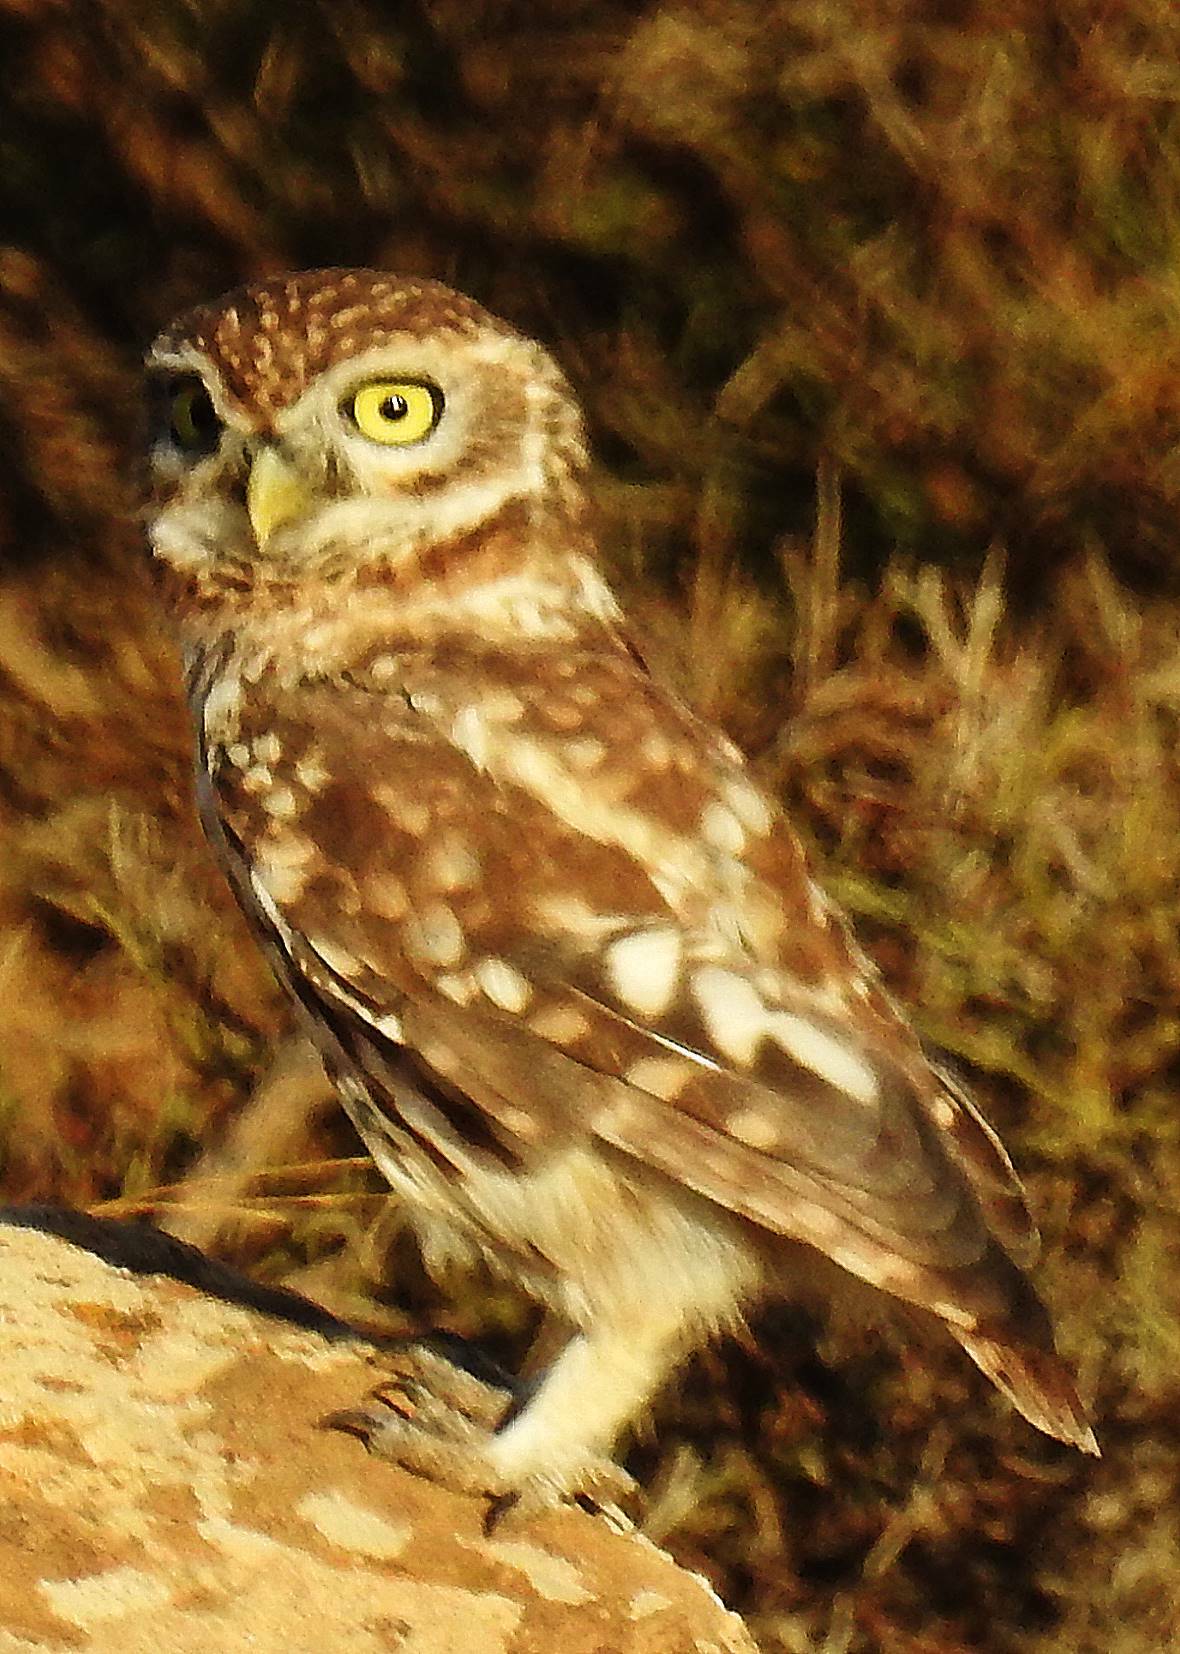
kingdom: Animalia
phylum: Chordata
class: Aves
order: Strigiformes
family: Strigidae
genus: Athene
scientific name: Athene noctua
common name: Little owl
